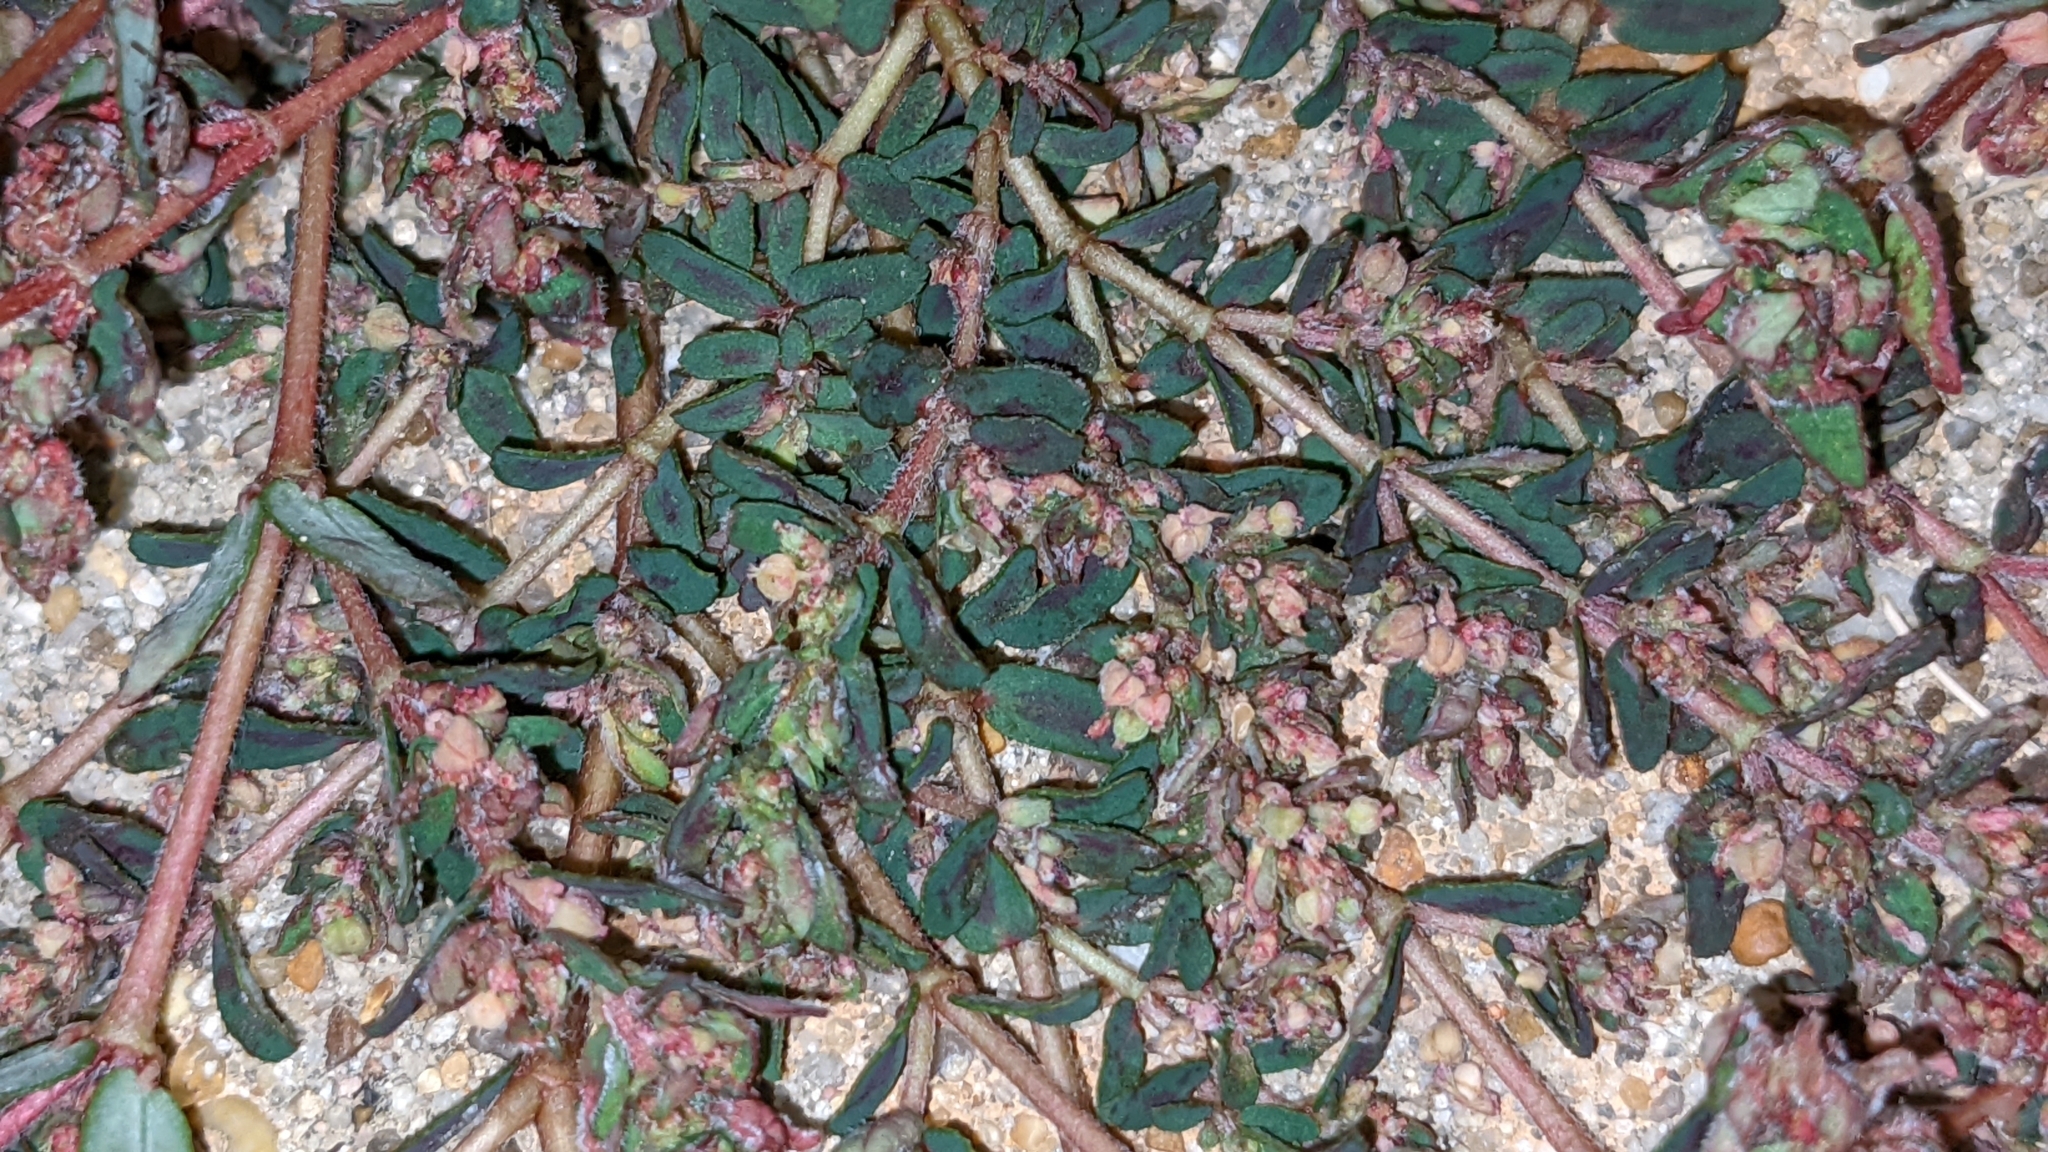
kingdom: Plantae
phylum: Tracheophyta
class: Magnoliopsida
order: Malpighiales
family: Euphorbiaceae
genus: Euphorbia
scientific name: Euphorbia maculata
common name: Spotted spurge
